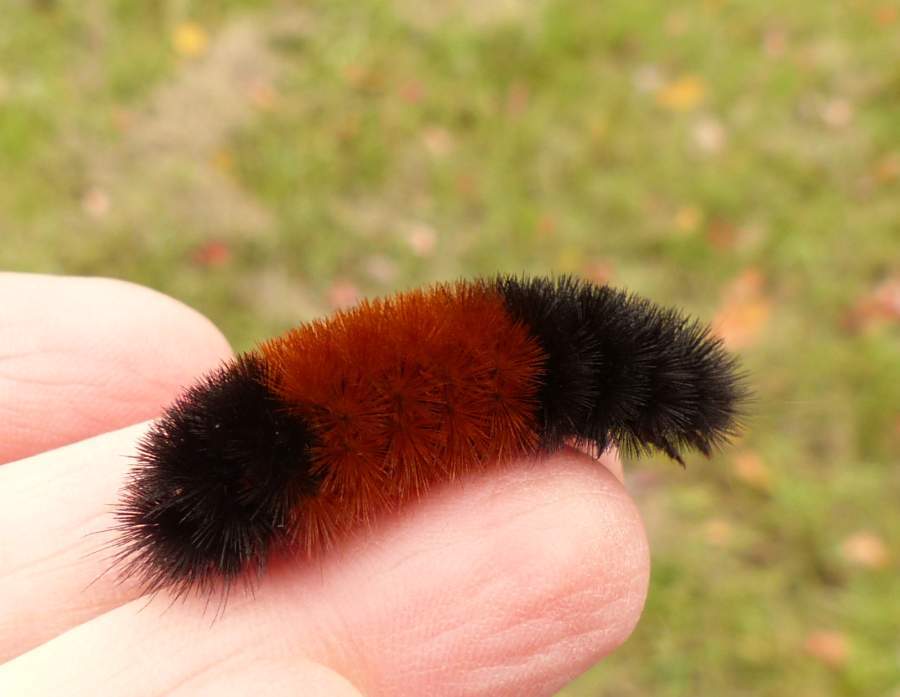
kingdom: Animalia
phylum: Arthropoda
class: Insecta
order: Lepidoptera
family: Erebidae
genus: Pyrrharctia
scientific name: Pyrrharctia isabella
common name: Isabella tiger moth
